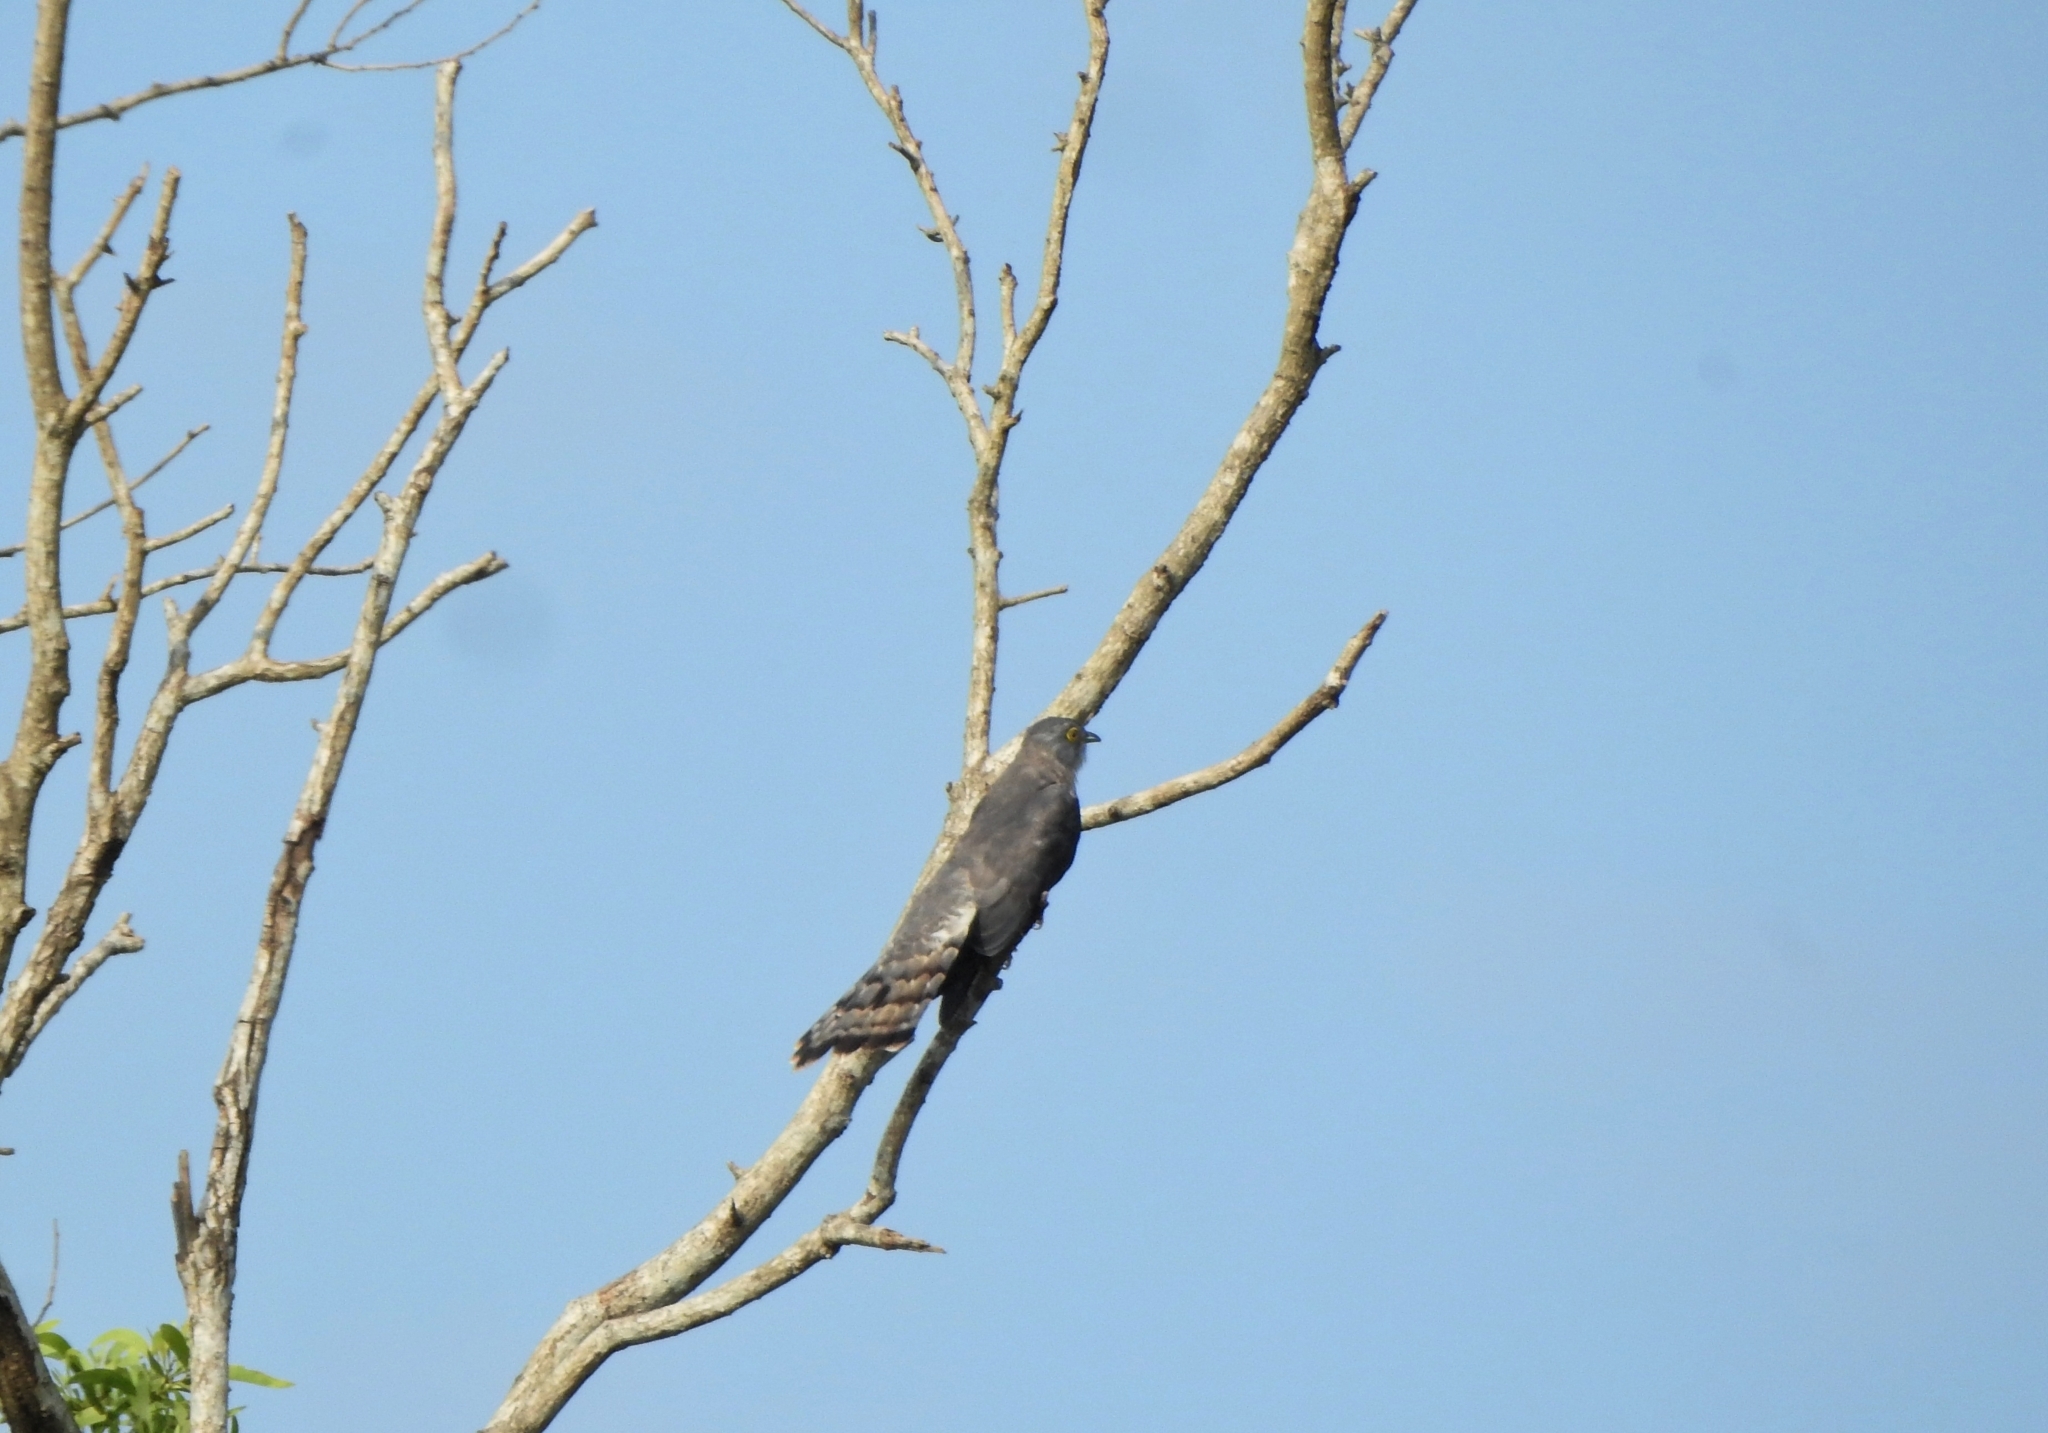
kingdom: Animalia
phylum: Chordata
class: Aves
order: Cuculiformes
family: Cuculidae
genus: Cuculus
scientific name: Cuculus varius
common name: Common hawk cuckoo
